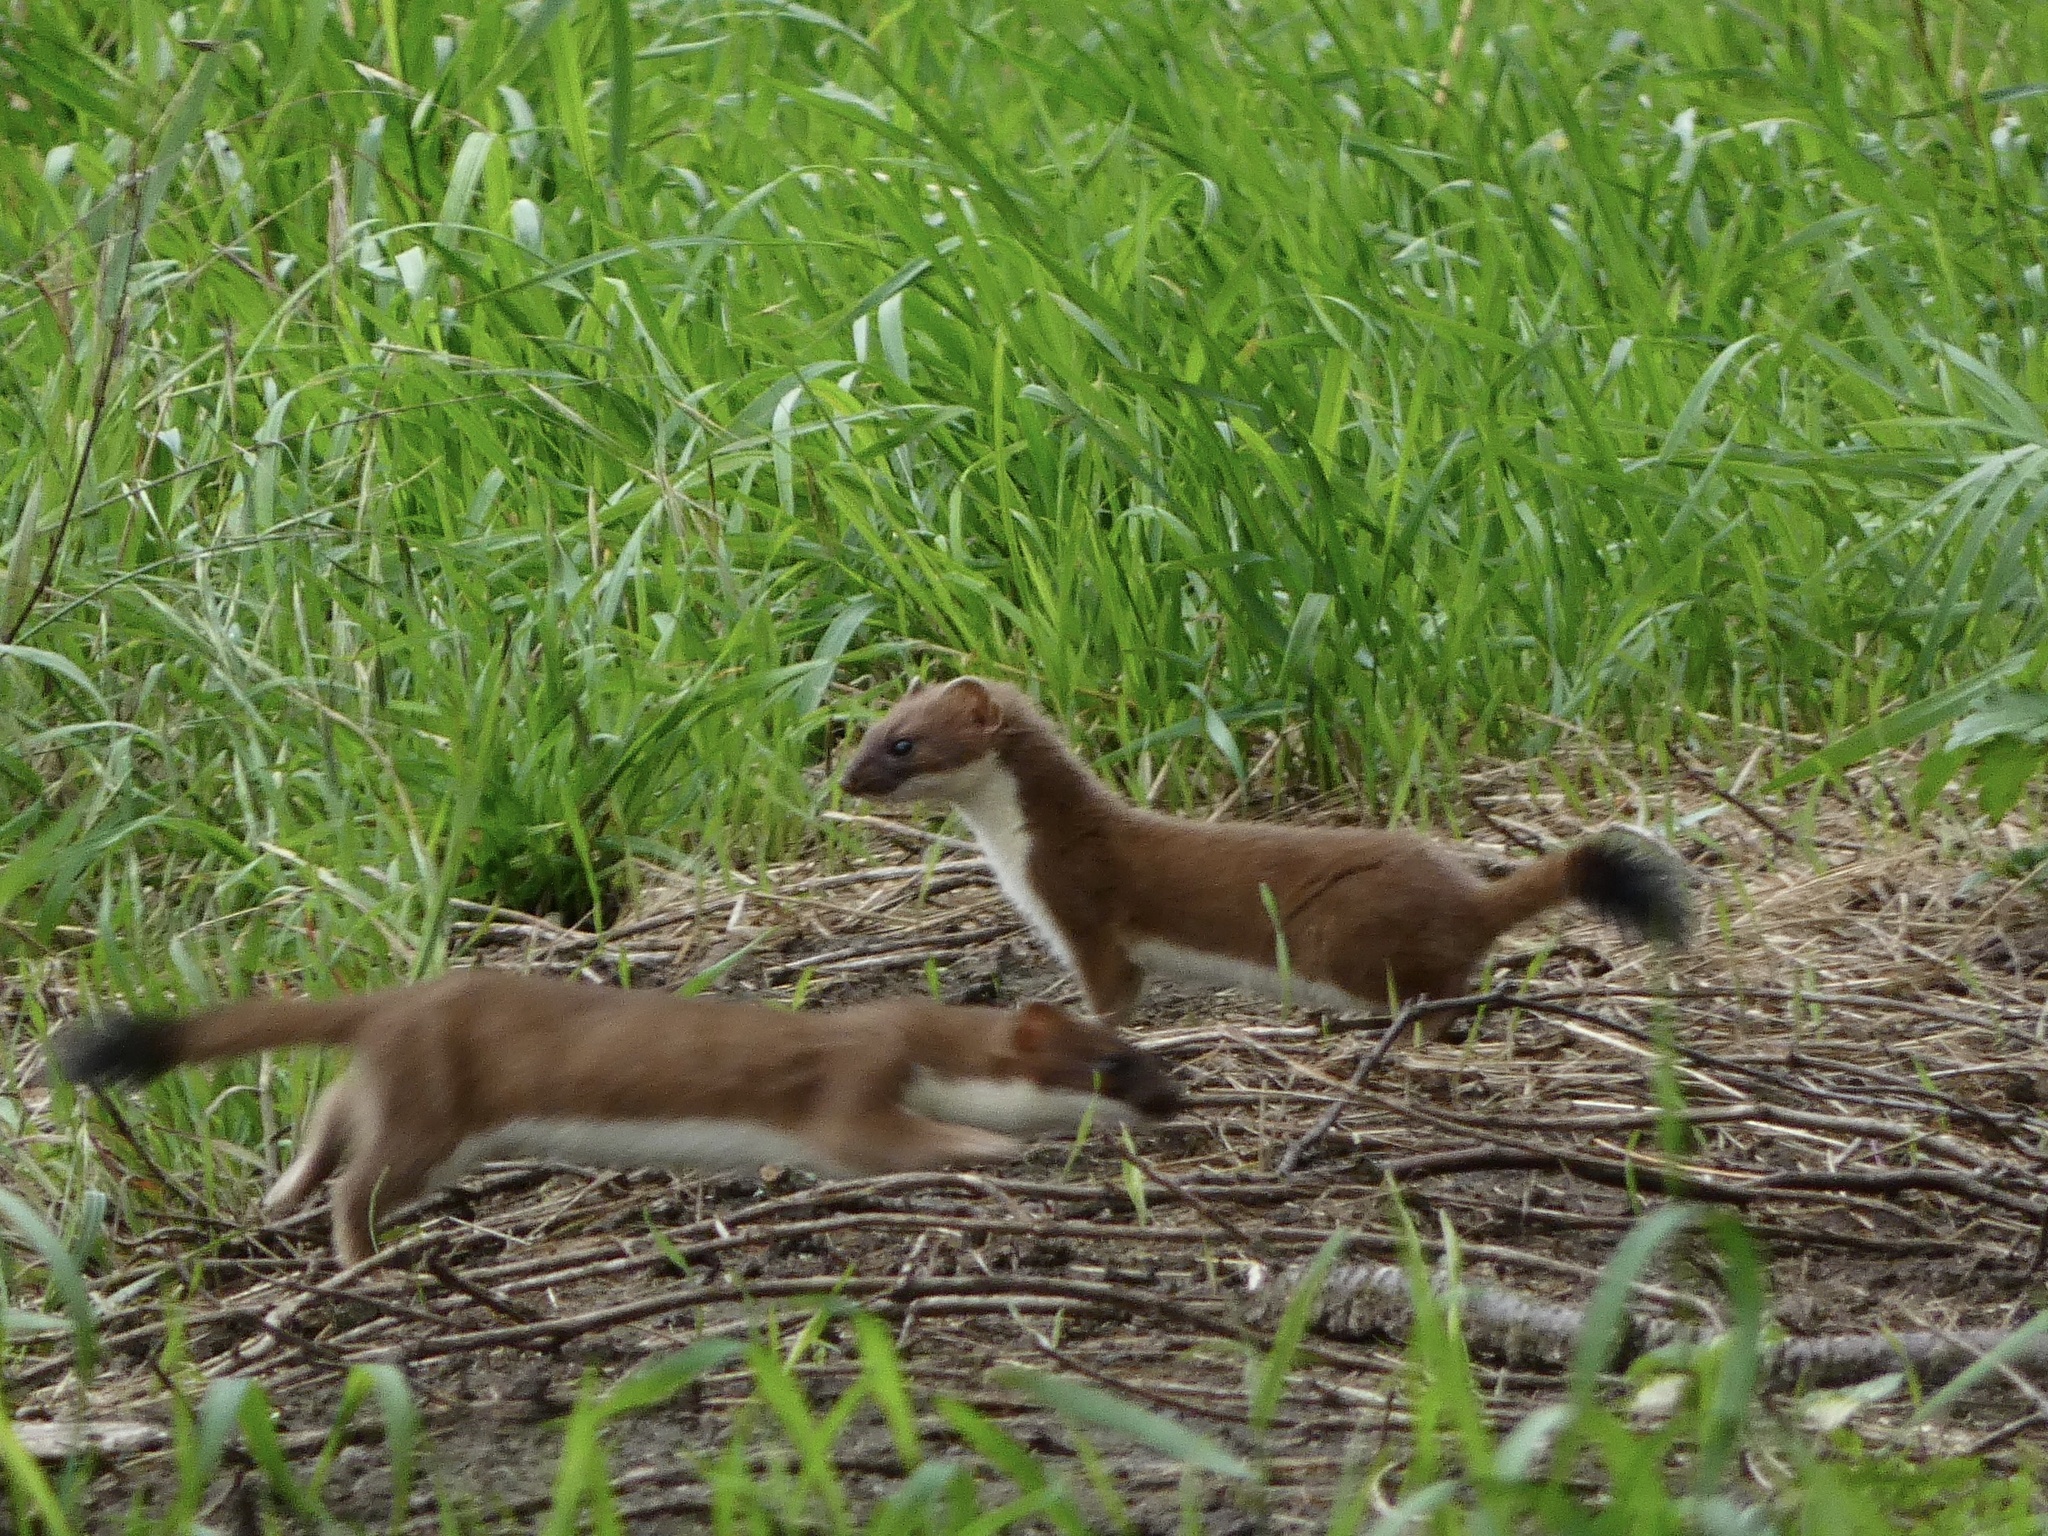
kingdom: Animalia
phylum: Chordata
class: Mammalia
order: Carnivora
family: Mustelidae
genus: Mustela
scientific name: Mustela erminea
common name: Stoat
